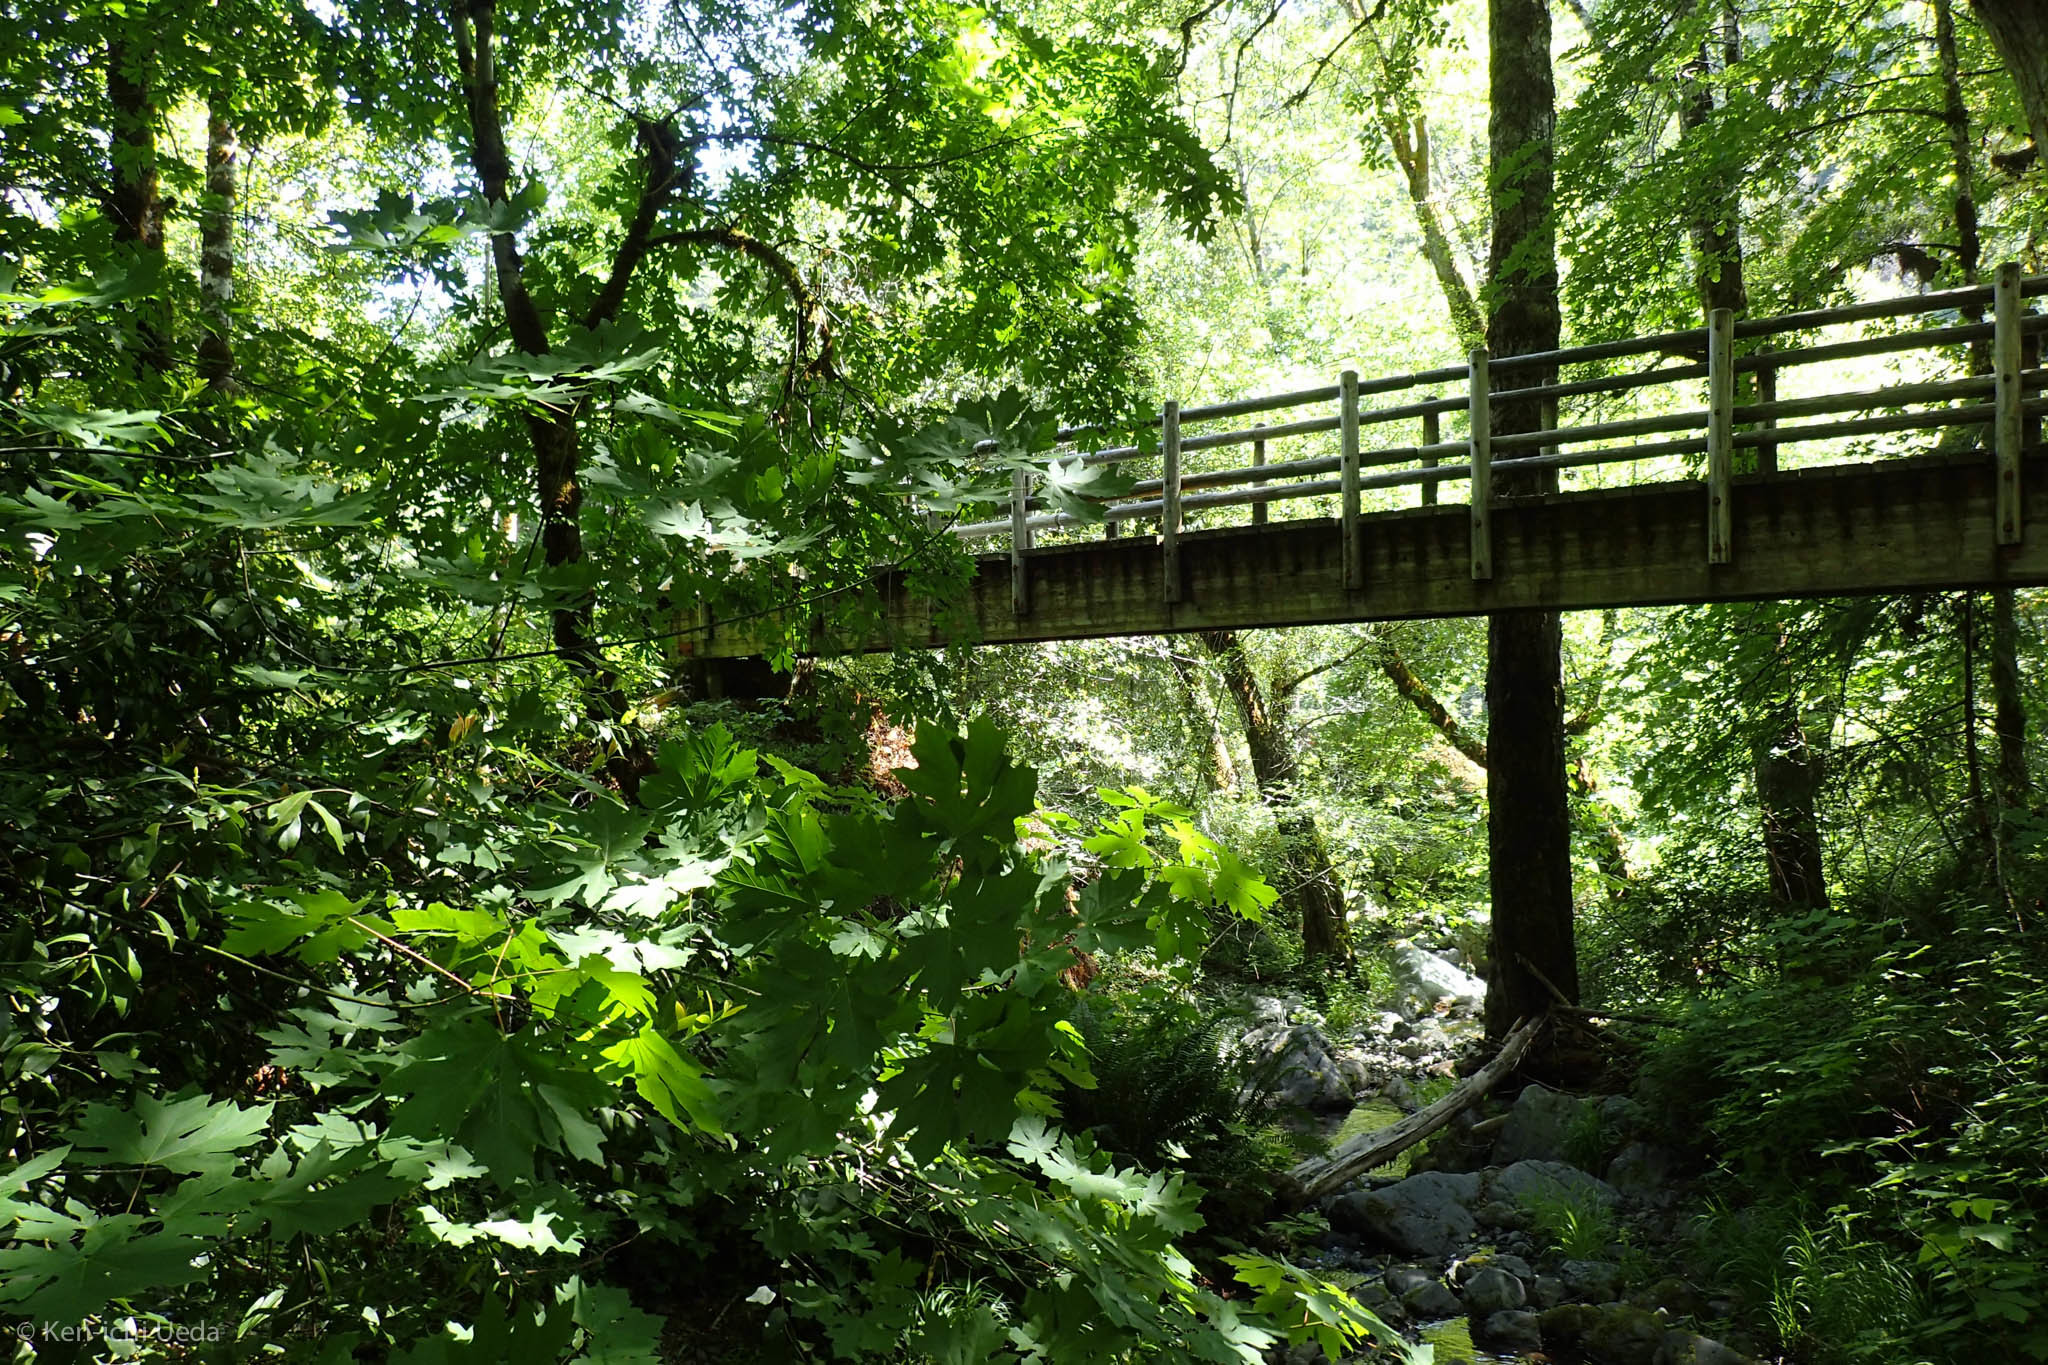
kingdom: Plantae
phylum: Tracheophyta
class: Magnoliopsida
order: Sapindales
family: Sapindaceae
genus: Acer
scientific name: Acer macrophyllum
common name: Oregon maple
